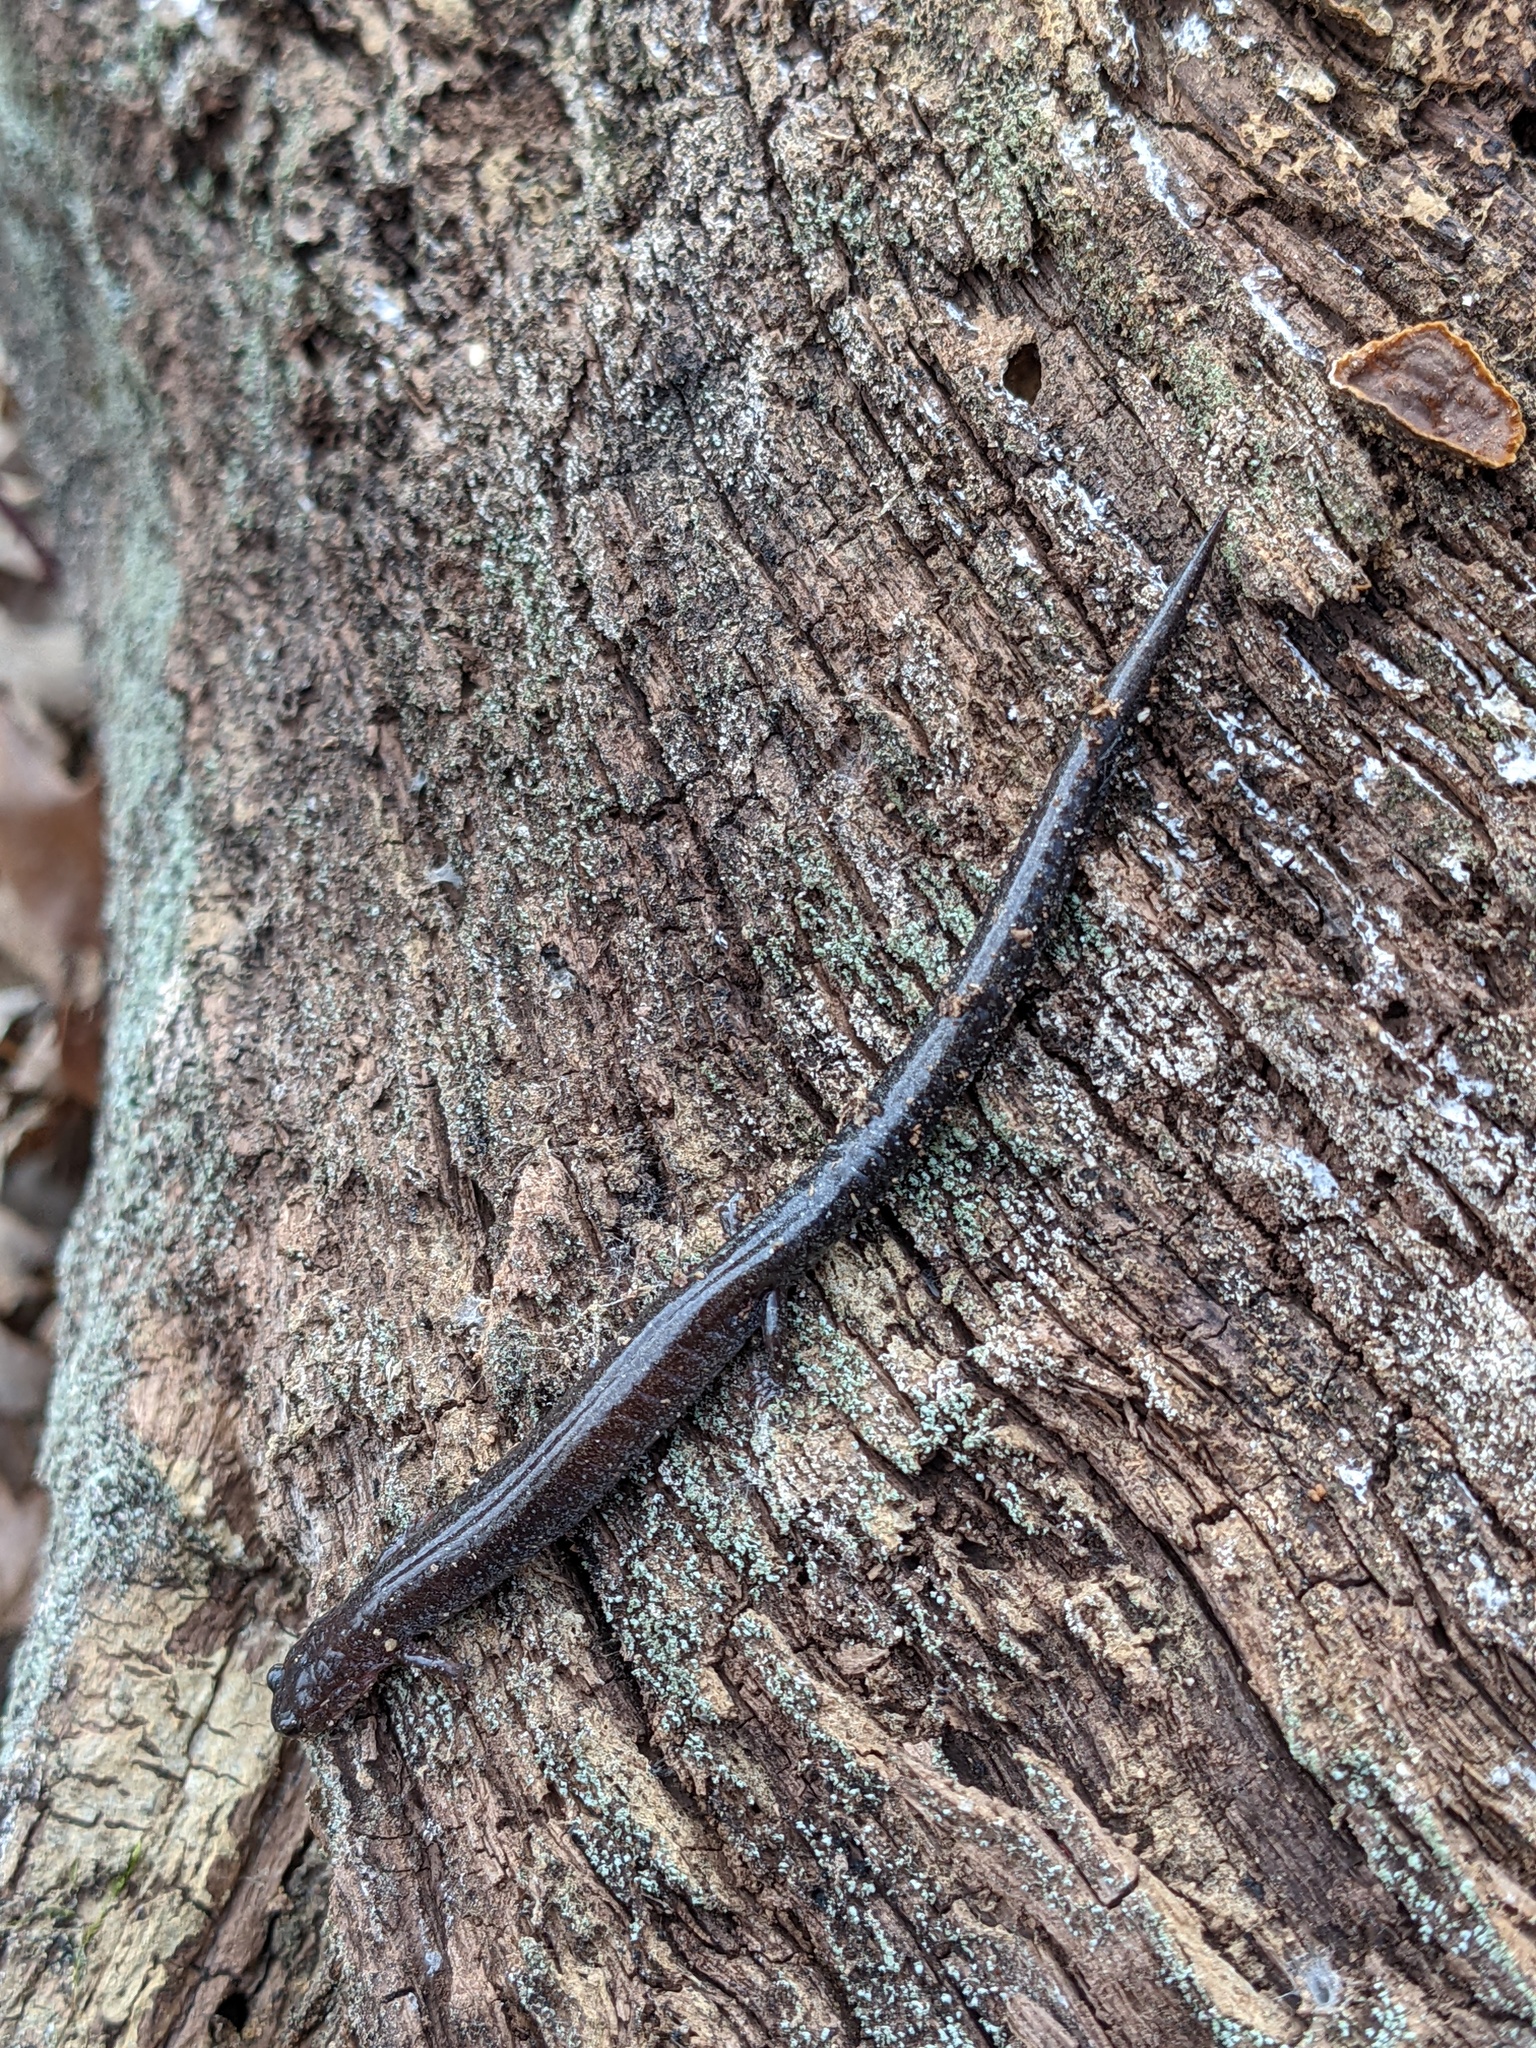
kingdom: Animalia
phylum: Chordata
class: Amphibia
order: Caudata
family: Plethodontidae
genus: Plethodon
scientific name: Plethodon cinereus
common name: Redback salamander
